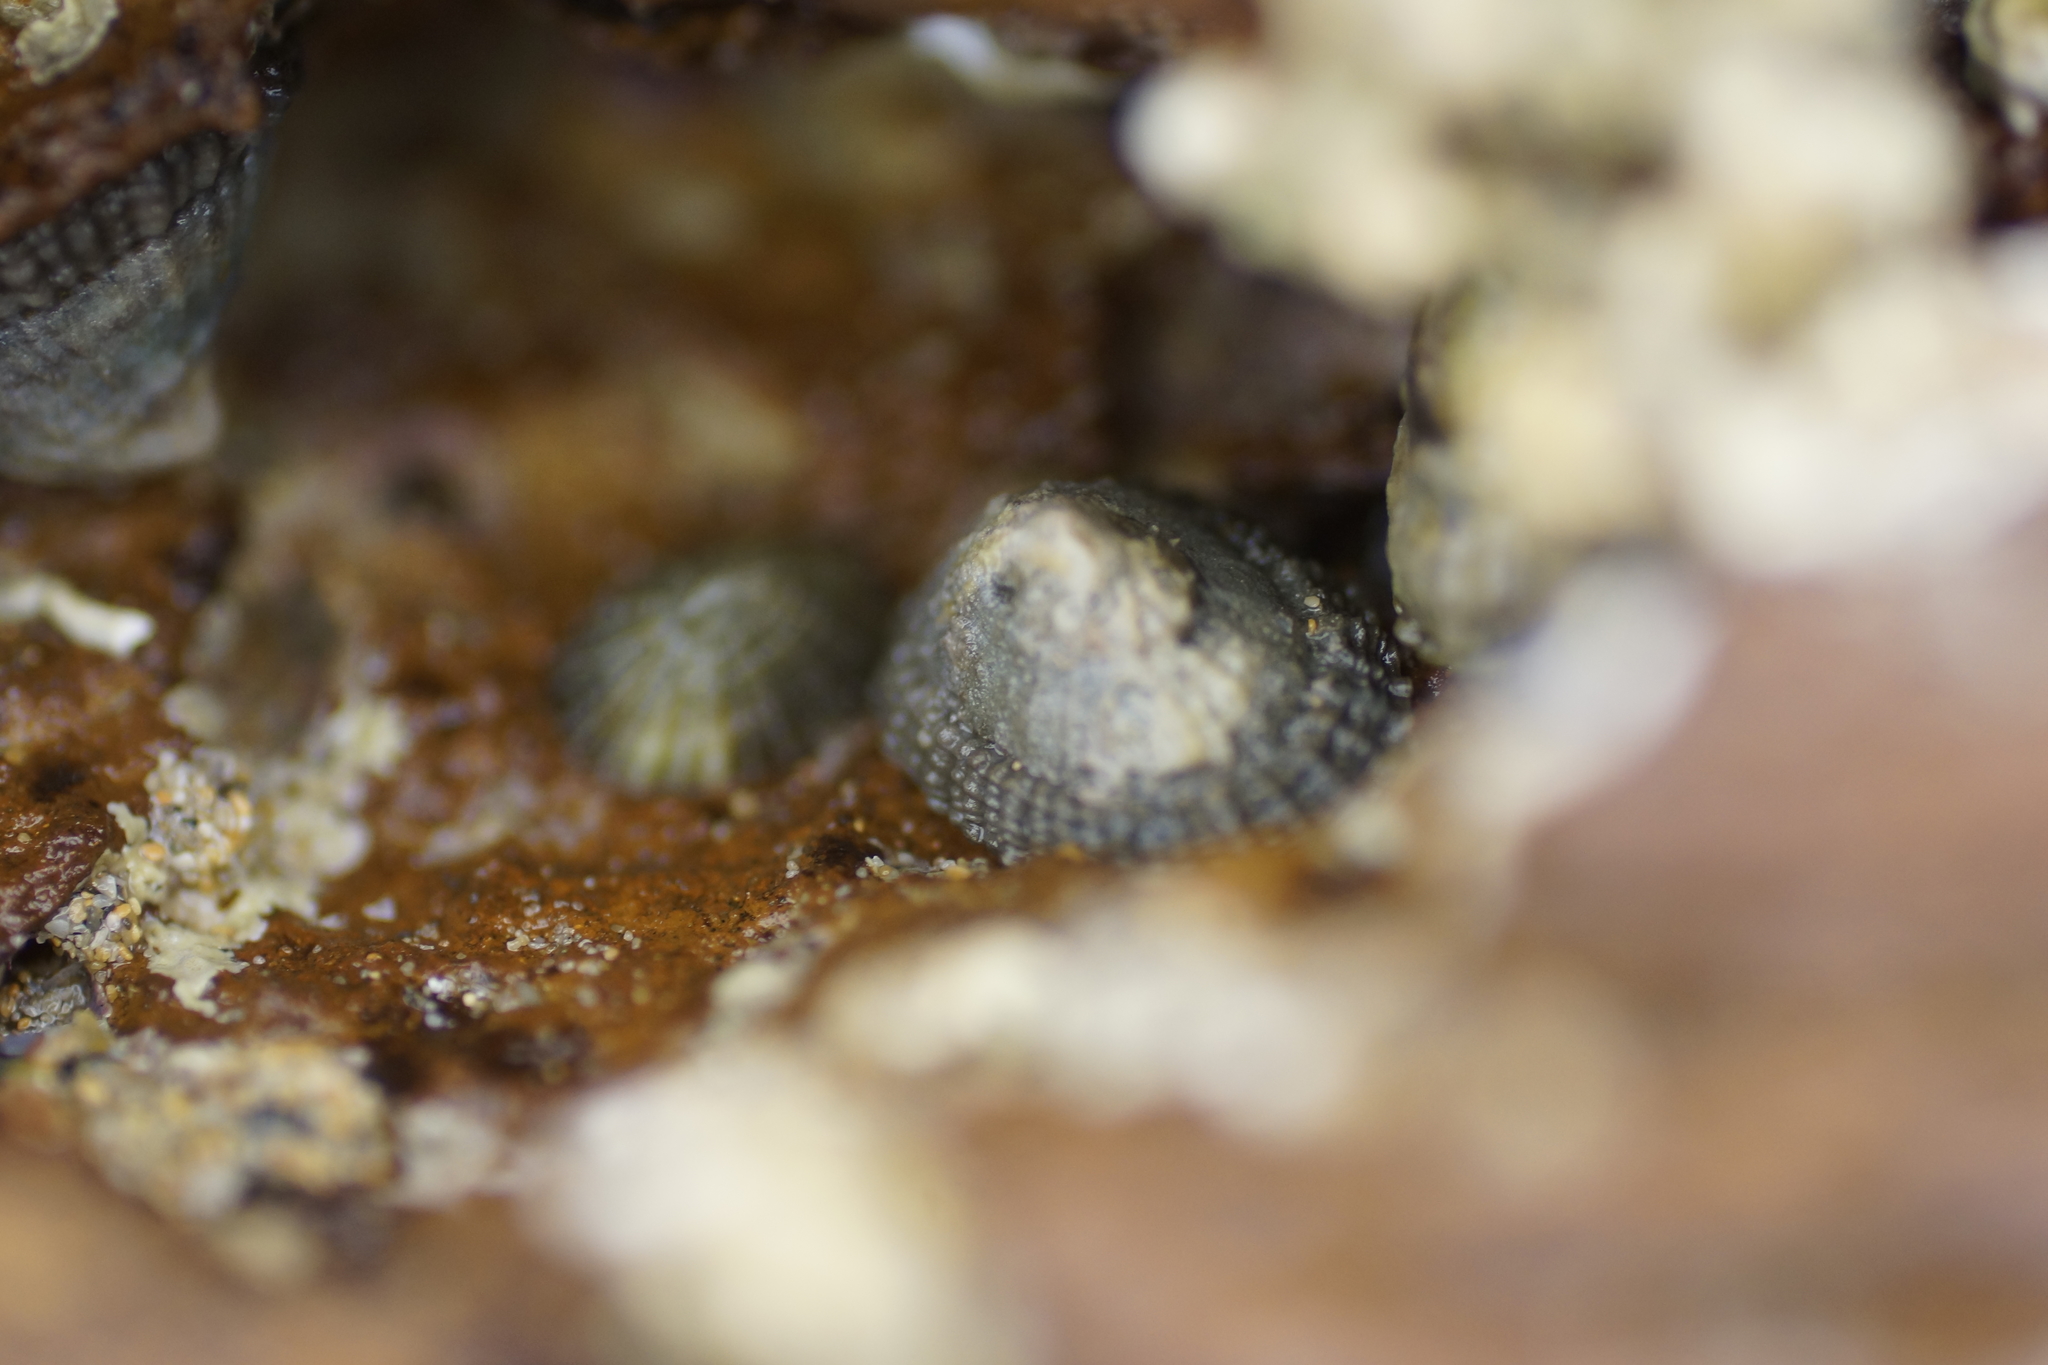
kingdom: Animalia
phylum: Mollusca
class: Gastropoda
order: Lepetellida
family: Fissurellidae
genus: Montfortula
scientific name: Montfortula rugosa
